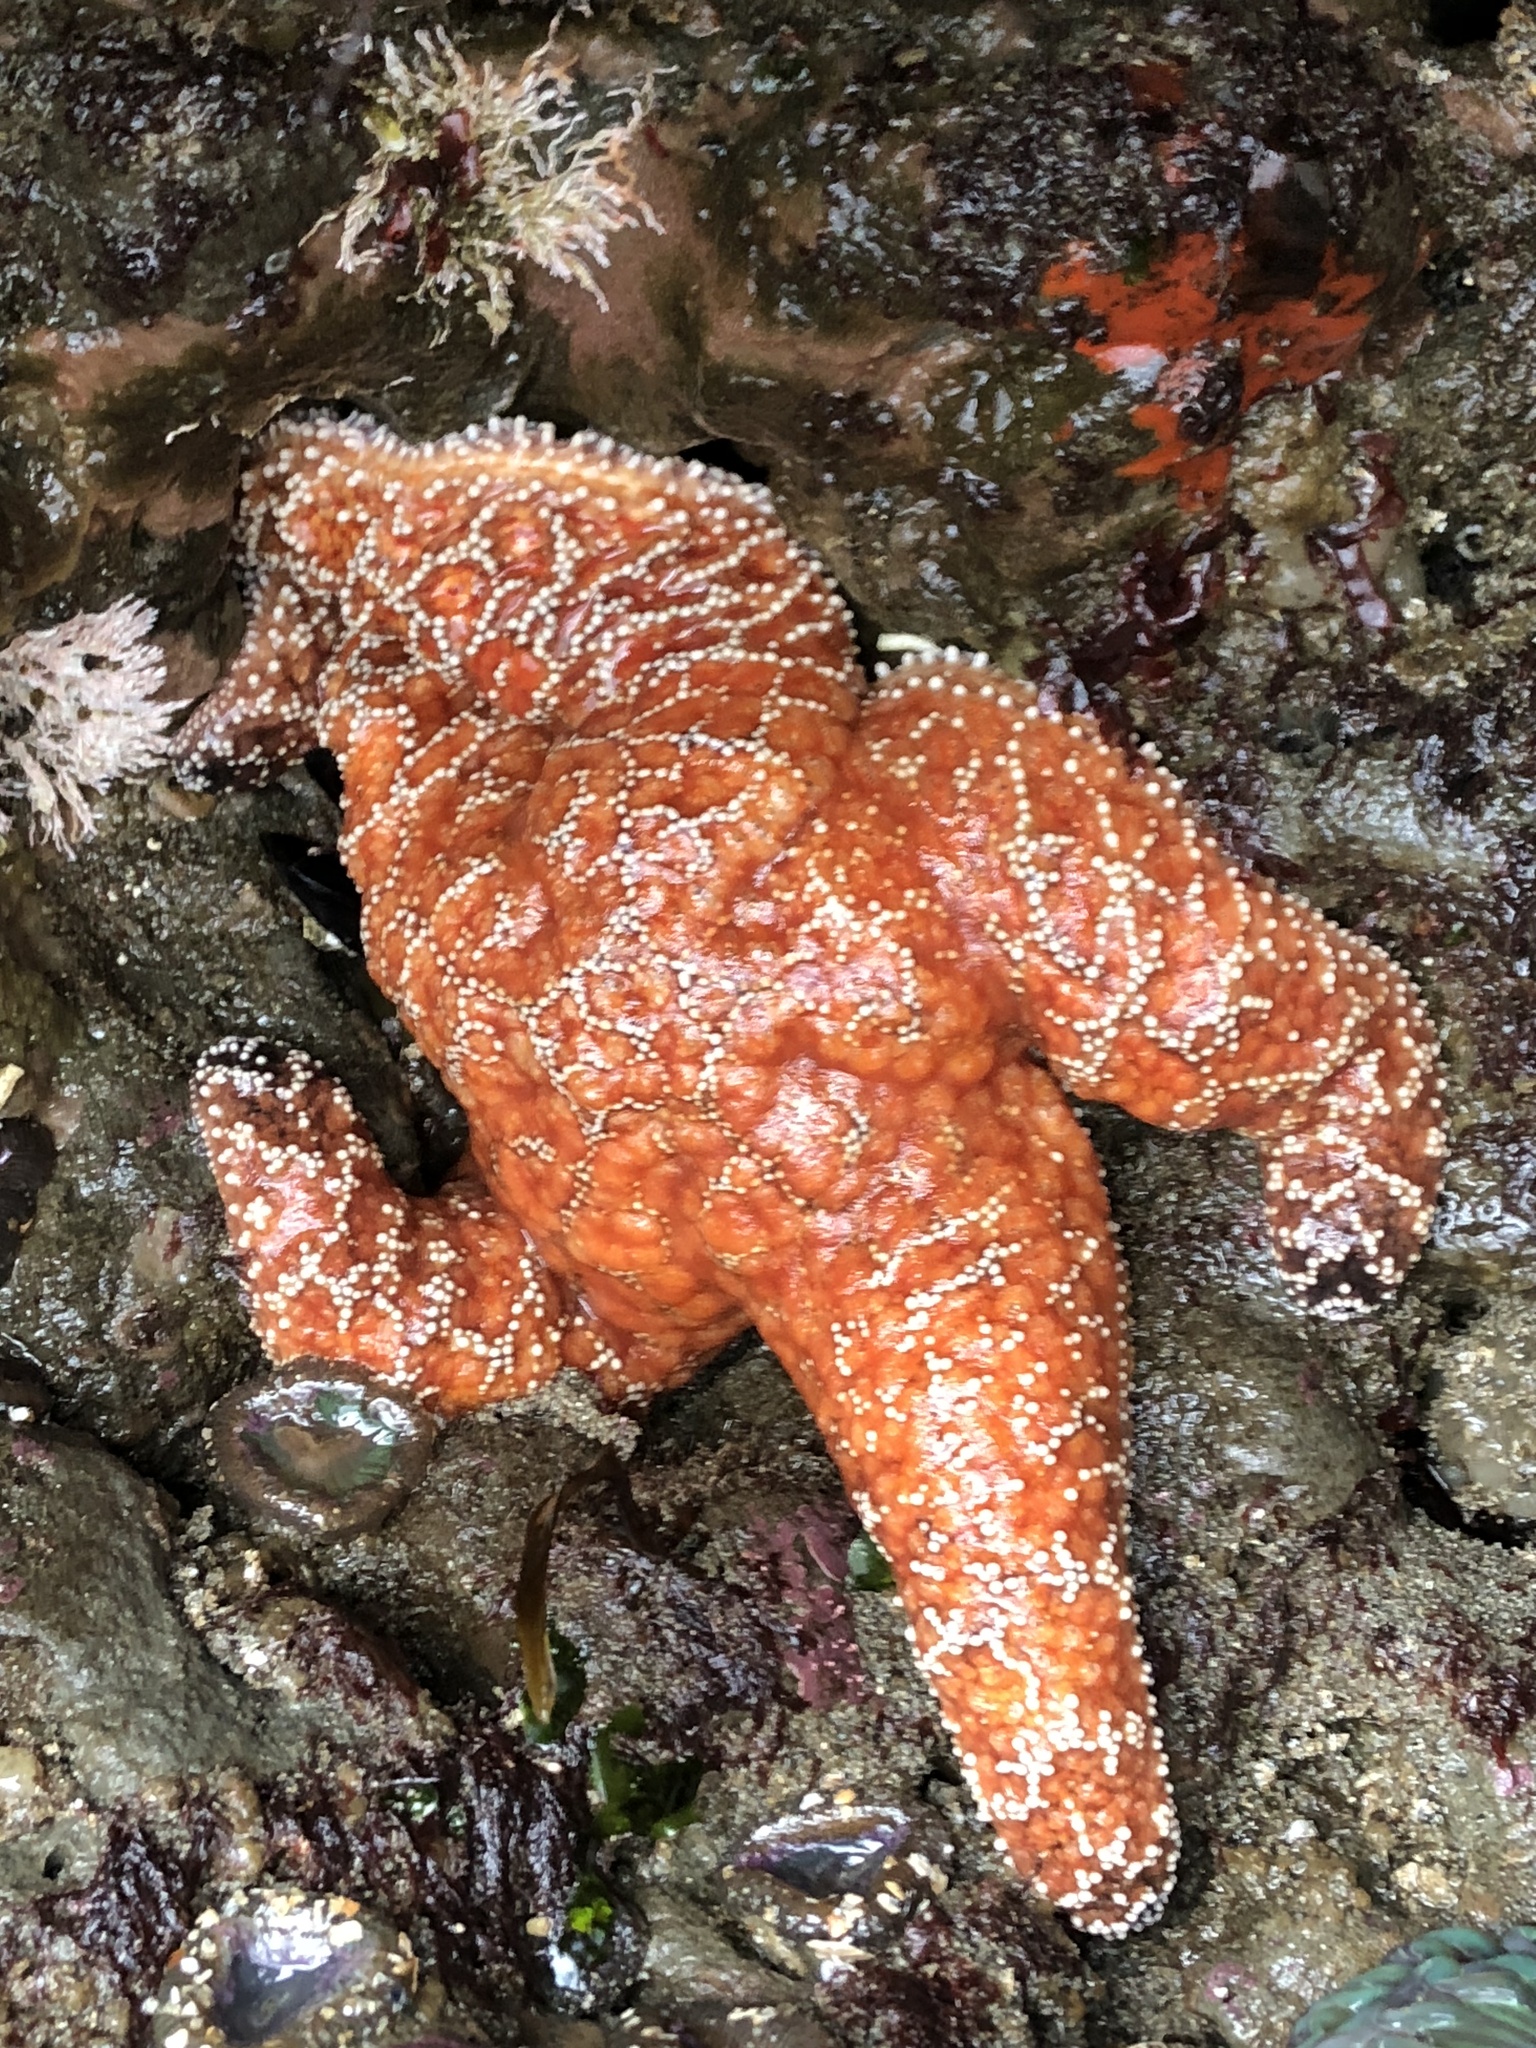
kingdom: Animalia
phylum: Echinodermata
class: Asteroidea
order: Forcipulatida
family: Asteriidae
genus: Pisaster
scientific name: Pisaster ochraceus
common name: Ochre stars
